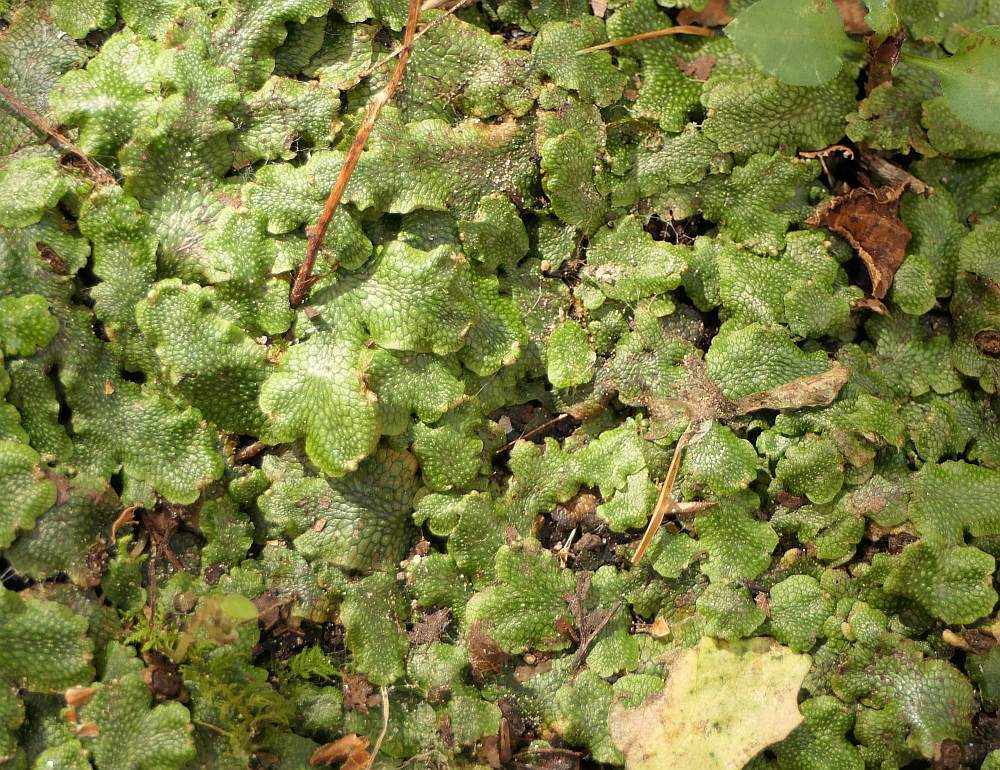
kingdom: Plantae
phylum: Marchantiophyta
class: Marchantiopsida
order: Marchantiales
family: Conocephalaceae
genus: Conocephalum
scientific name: Conocephalum salebrosum
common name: Cat-tongue liverwort
